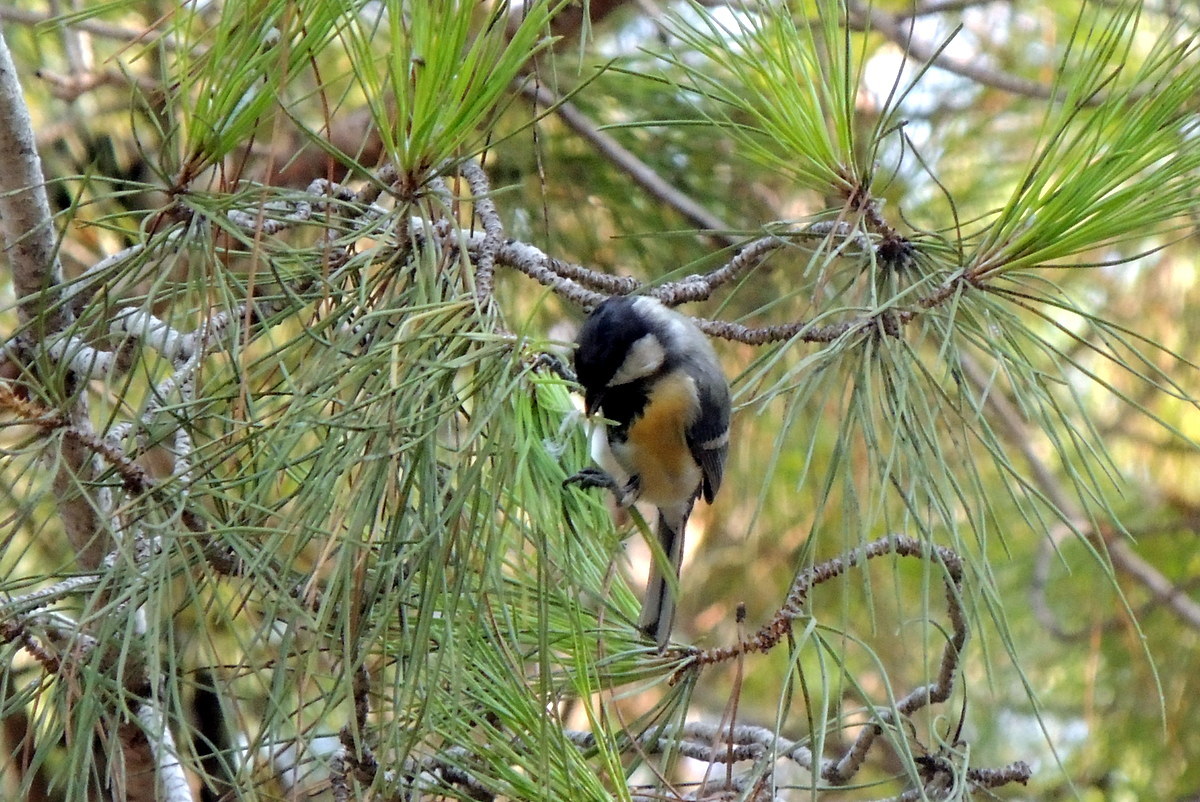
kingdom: Animalia
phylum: Chordata
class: Aves
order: Passeriformes
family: Paridae
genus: Parus
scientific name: Parus major
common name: Great tit
